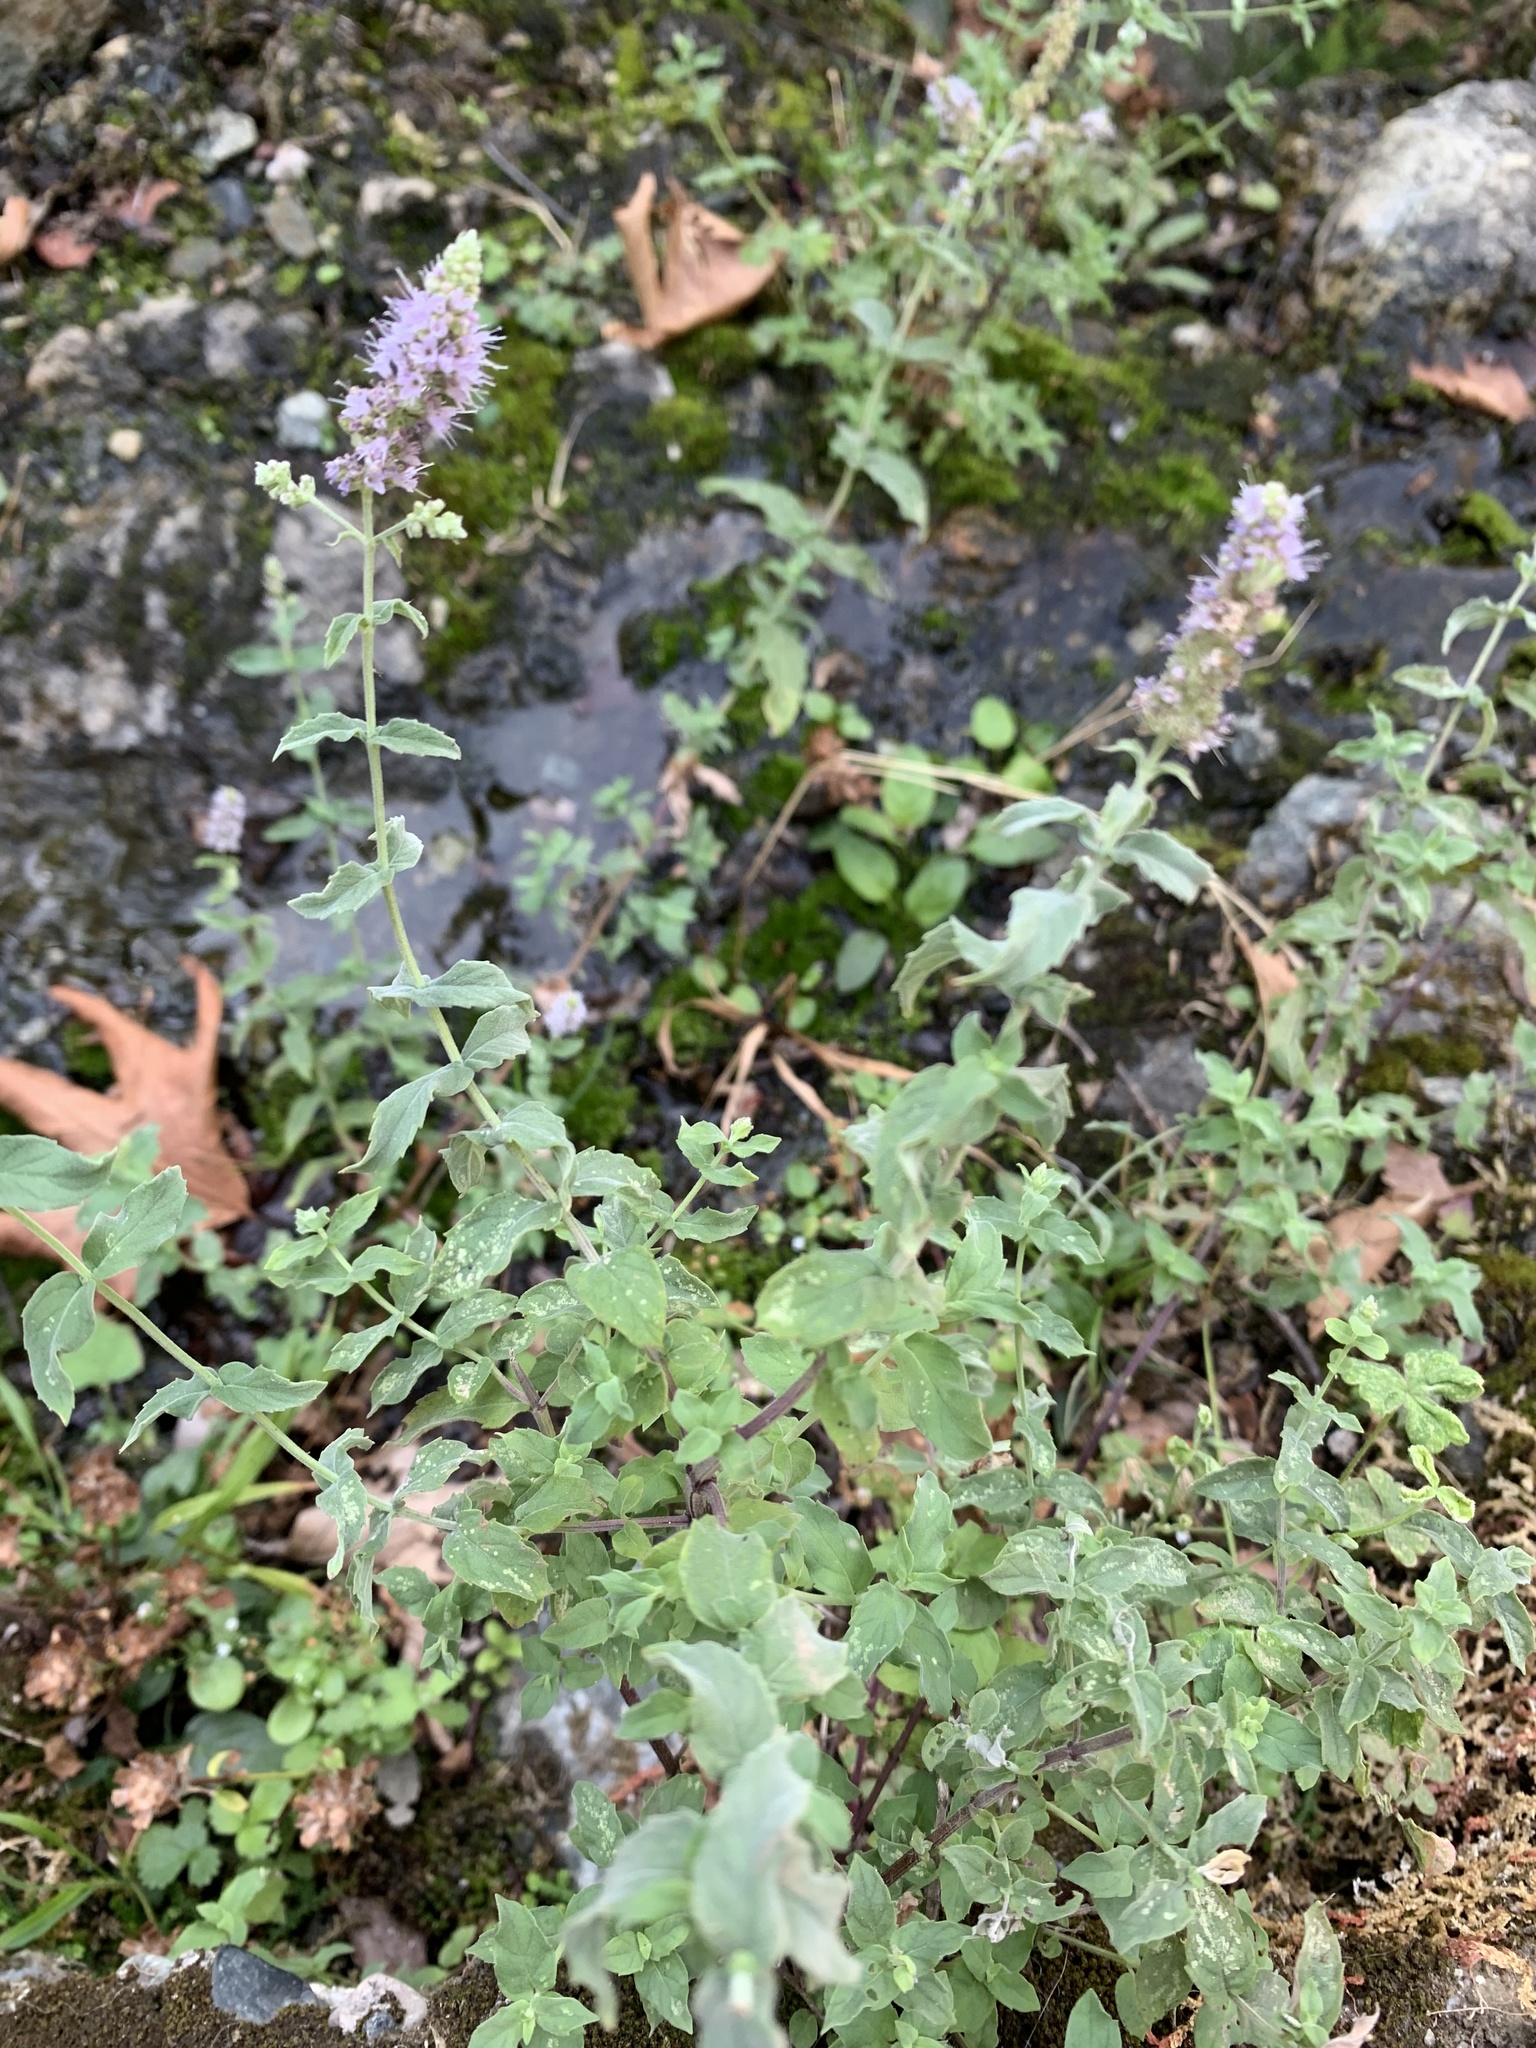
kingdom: Plantae
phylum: Tracheophyta
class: Magnoliopsida
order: Lamiales
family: Lamiaceae
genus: Mentha
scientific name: Mentha longifolia
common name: Horse mint
